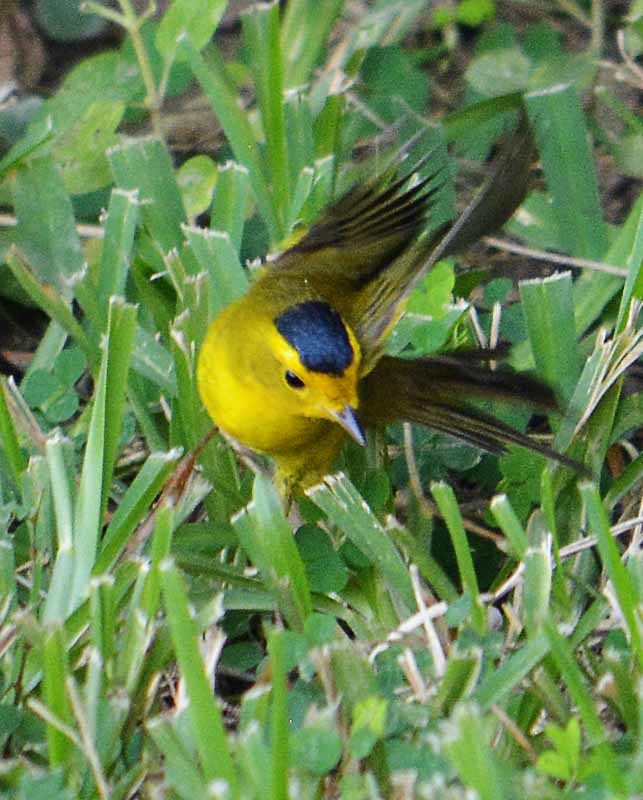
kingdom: Animalia
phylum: Chordata
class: Aves
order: Passeriformes
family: Parulidae
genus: Cardellina
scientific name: Cardellina pusilla
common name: Wilson's warbler
